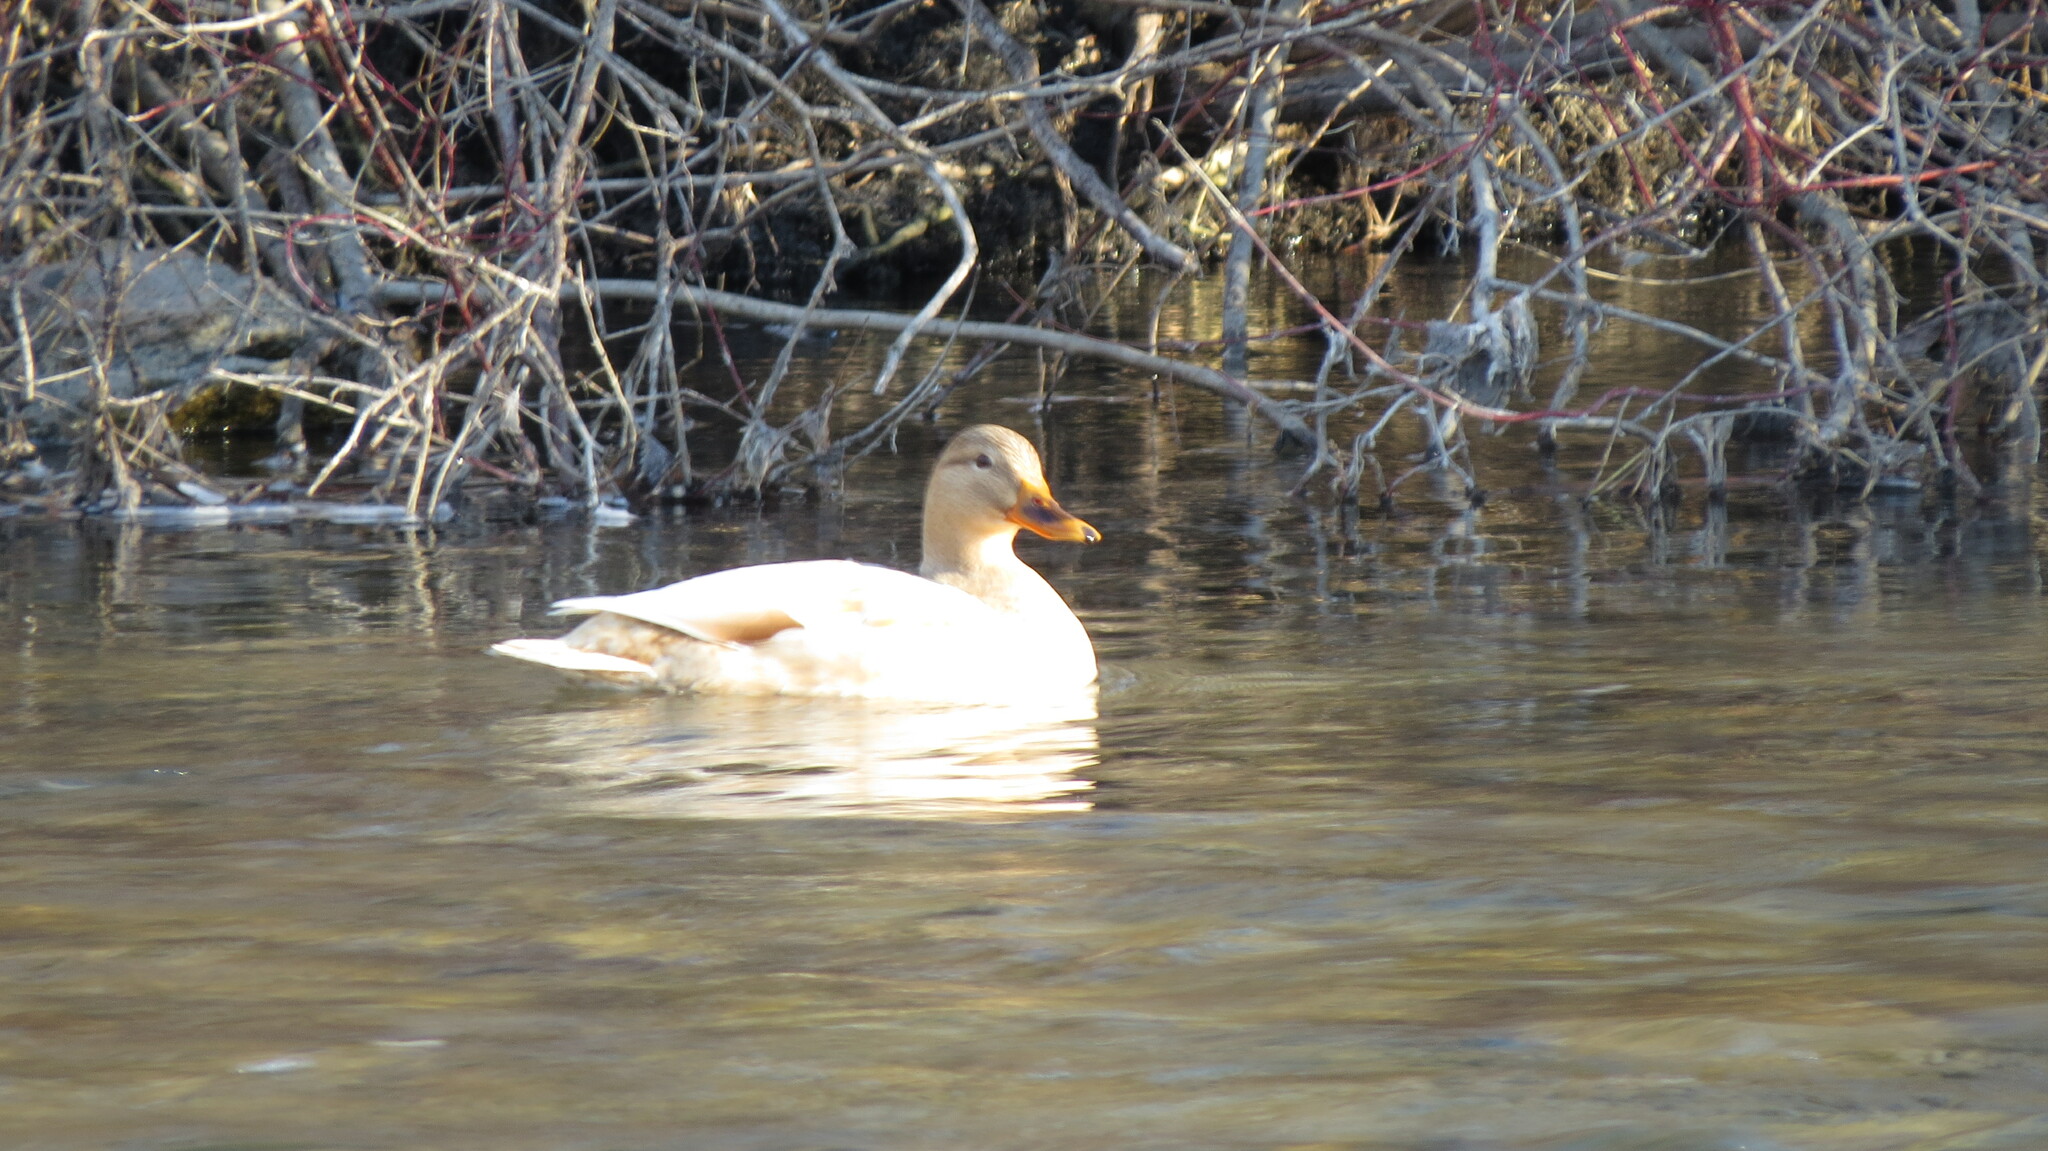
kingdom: Animalia
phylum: Chordata
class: Aves
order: Anseriformes
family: Anatidae
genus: Anas
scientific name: Anas platyrhynchos
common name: Mallard
